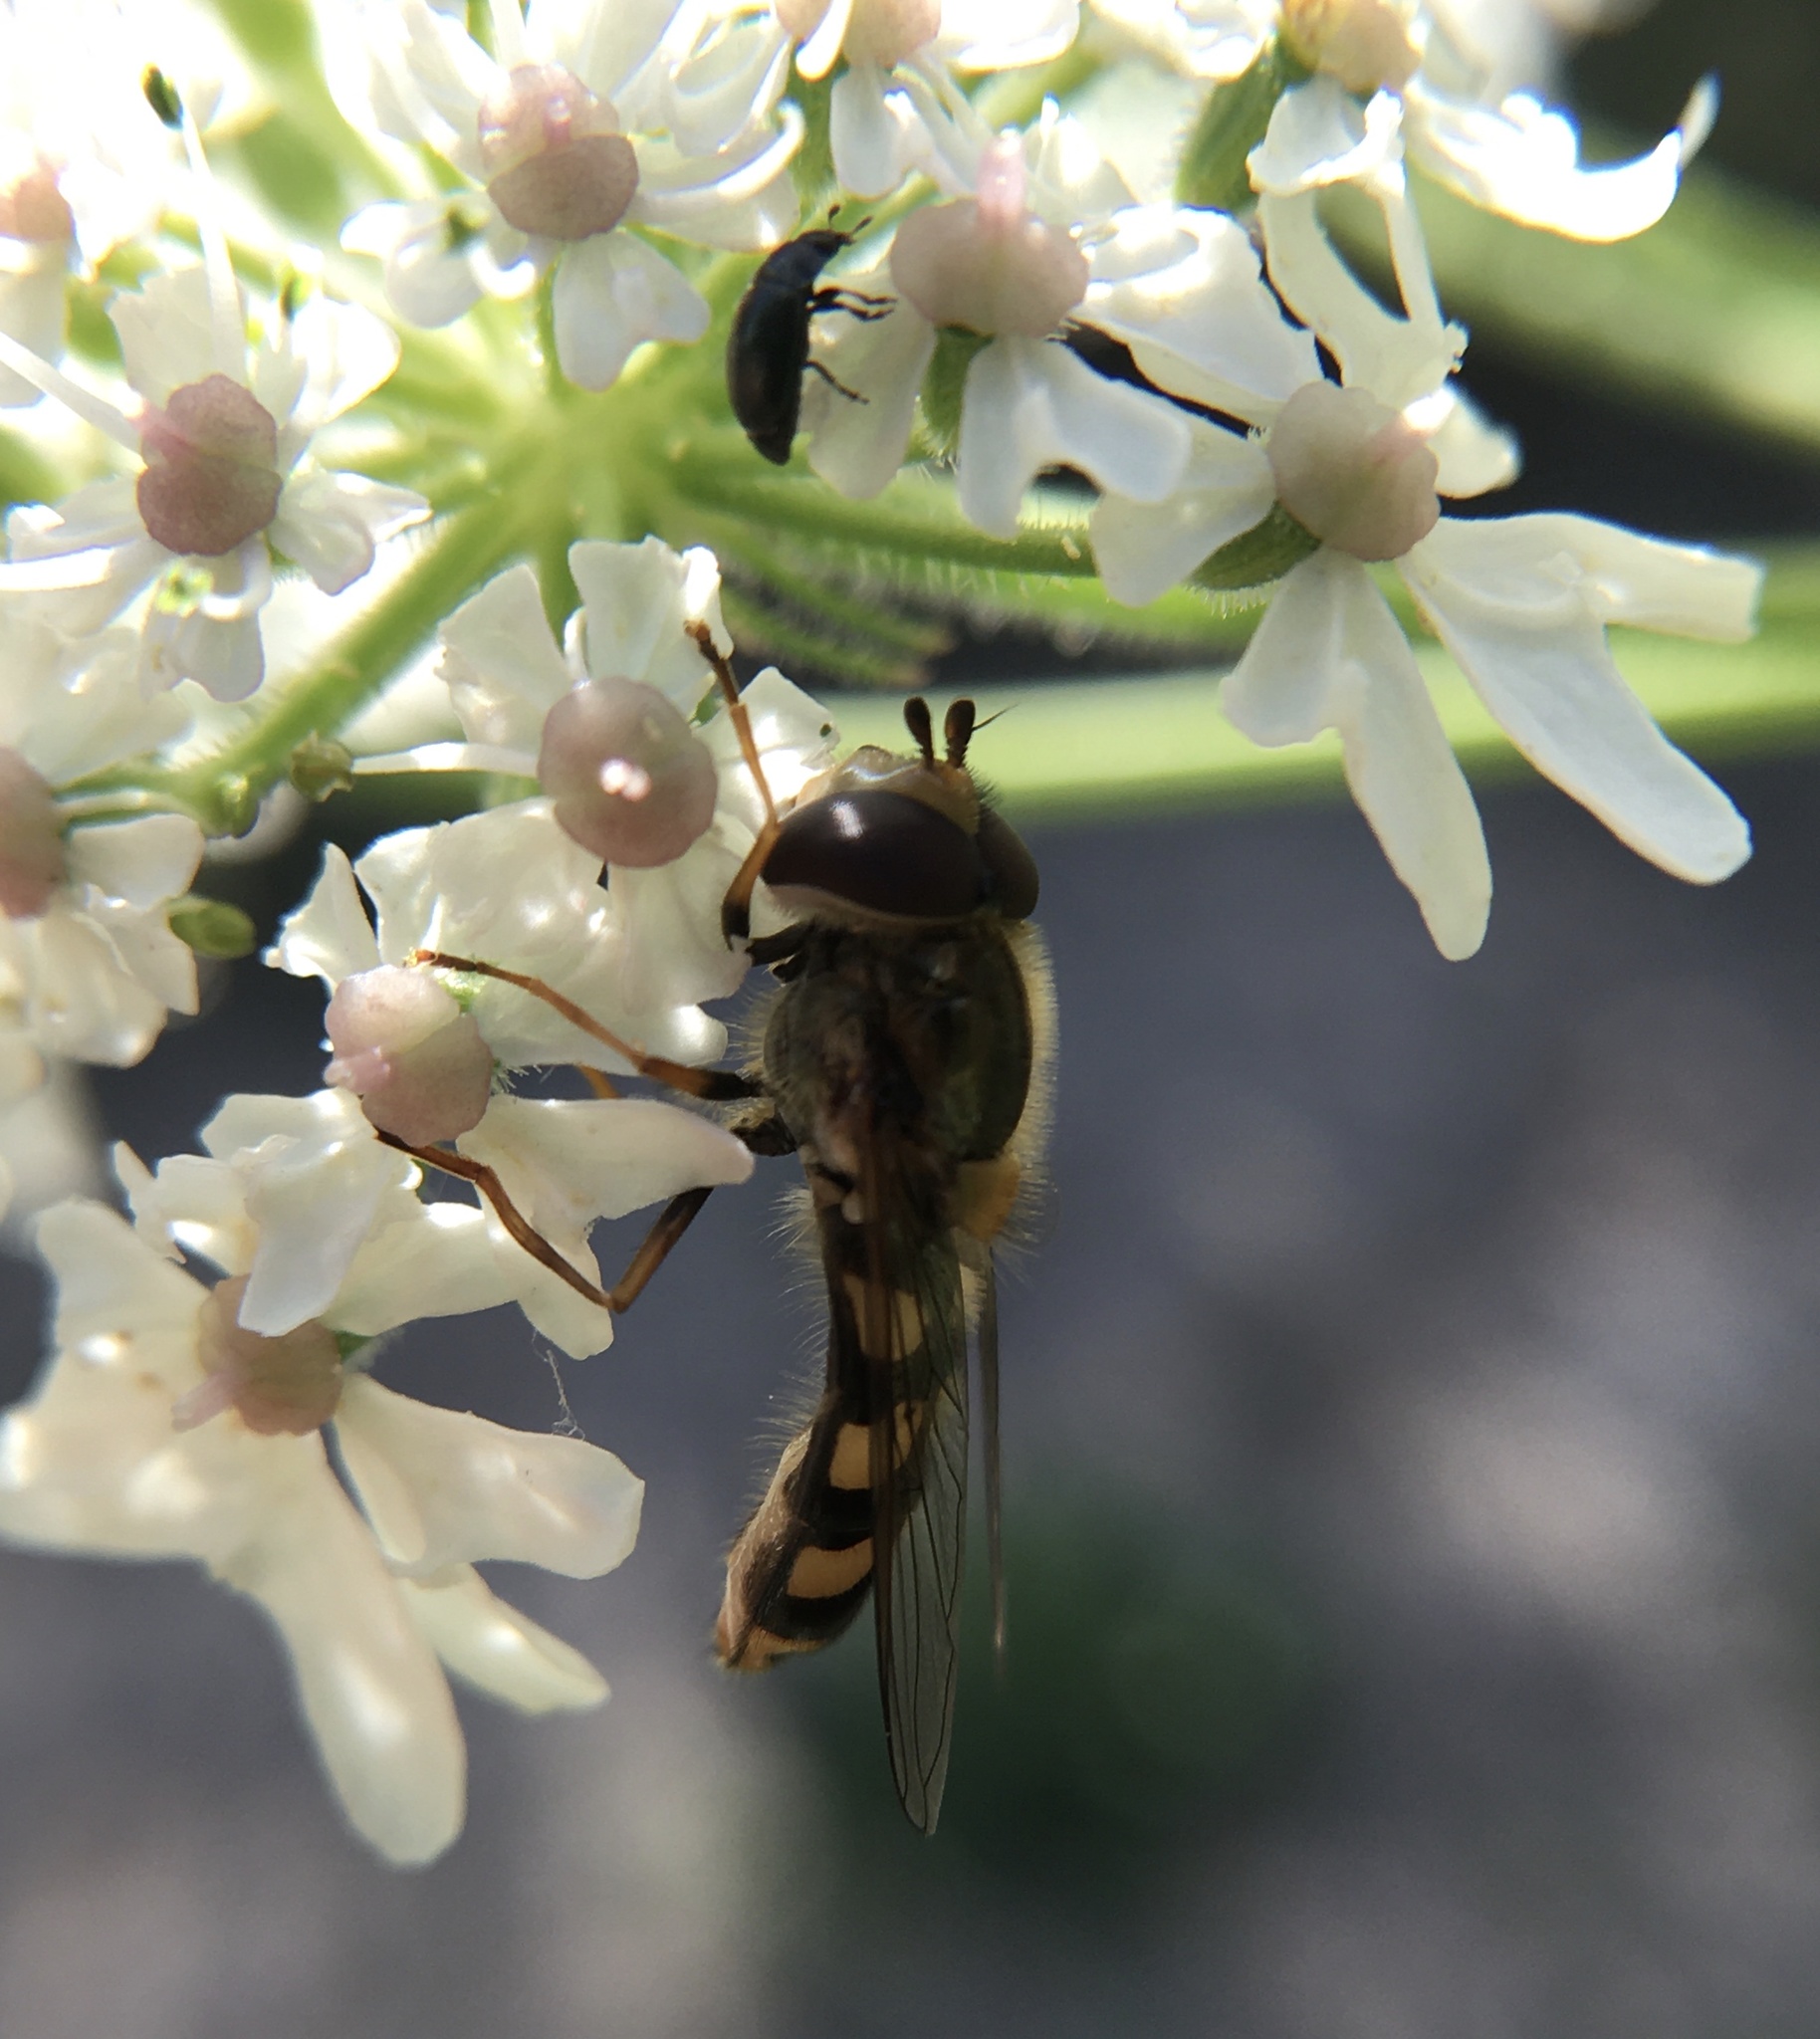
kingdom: Animalia
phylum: Arthropoda
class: Insecta
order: Diptera
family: Syrphidae
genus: Eupeodes
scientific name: Eupeodes
